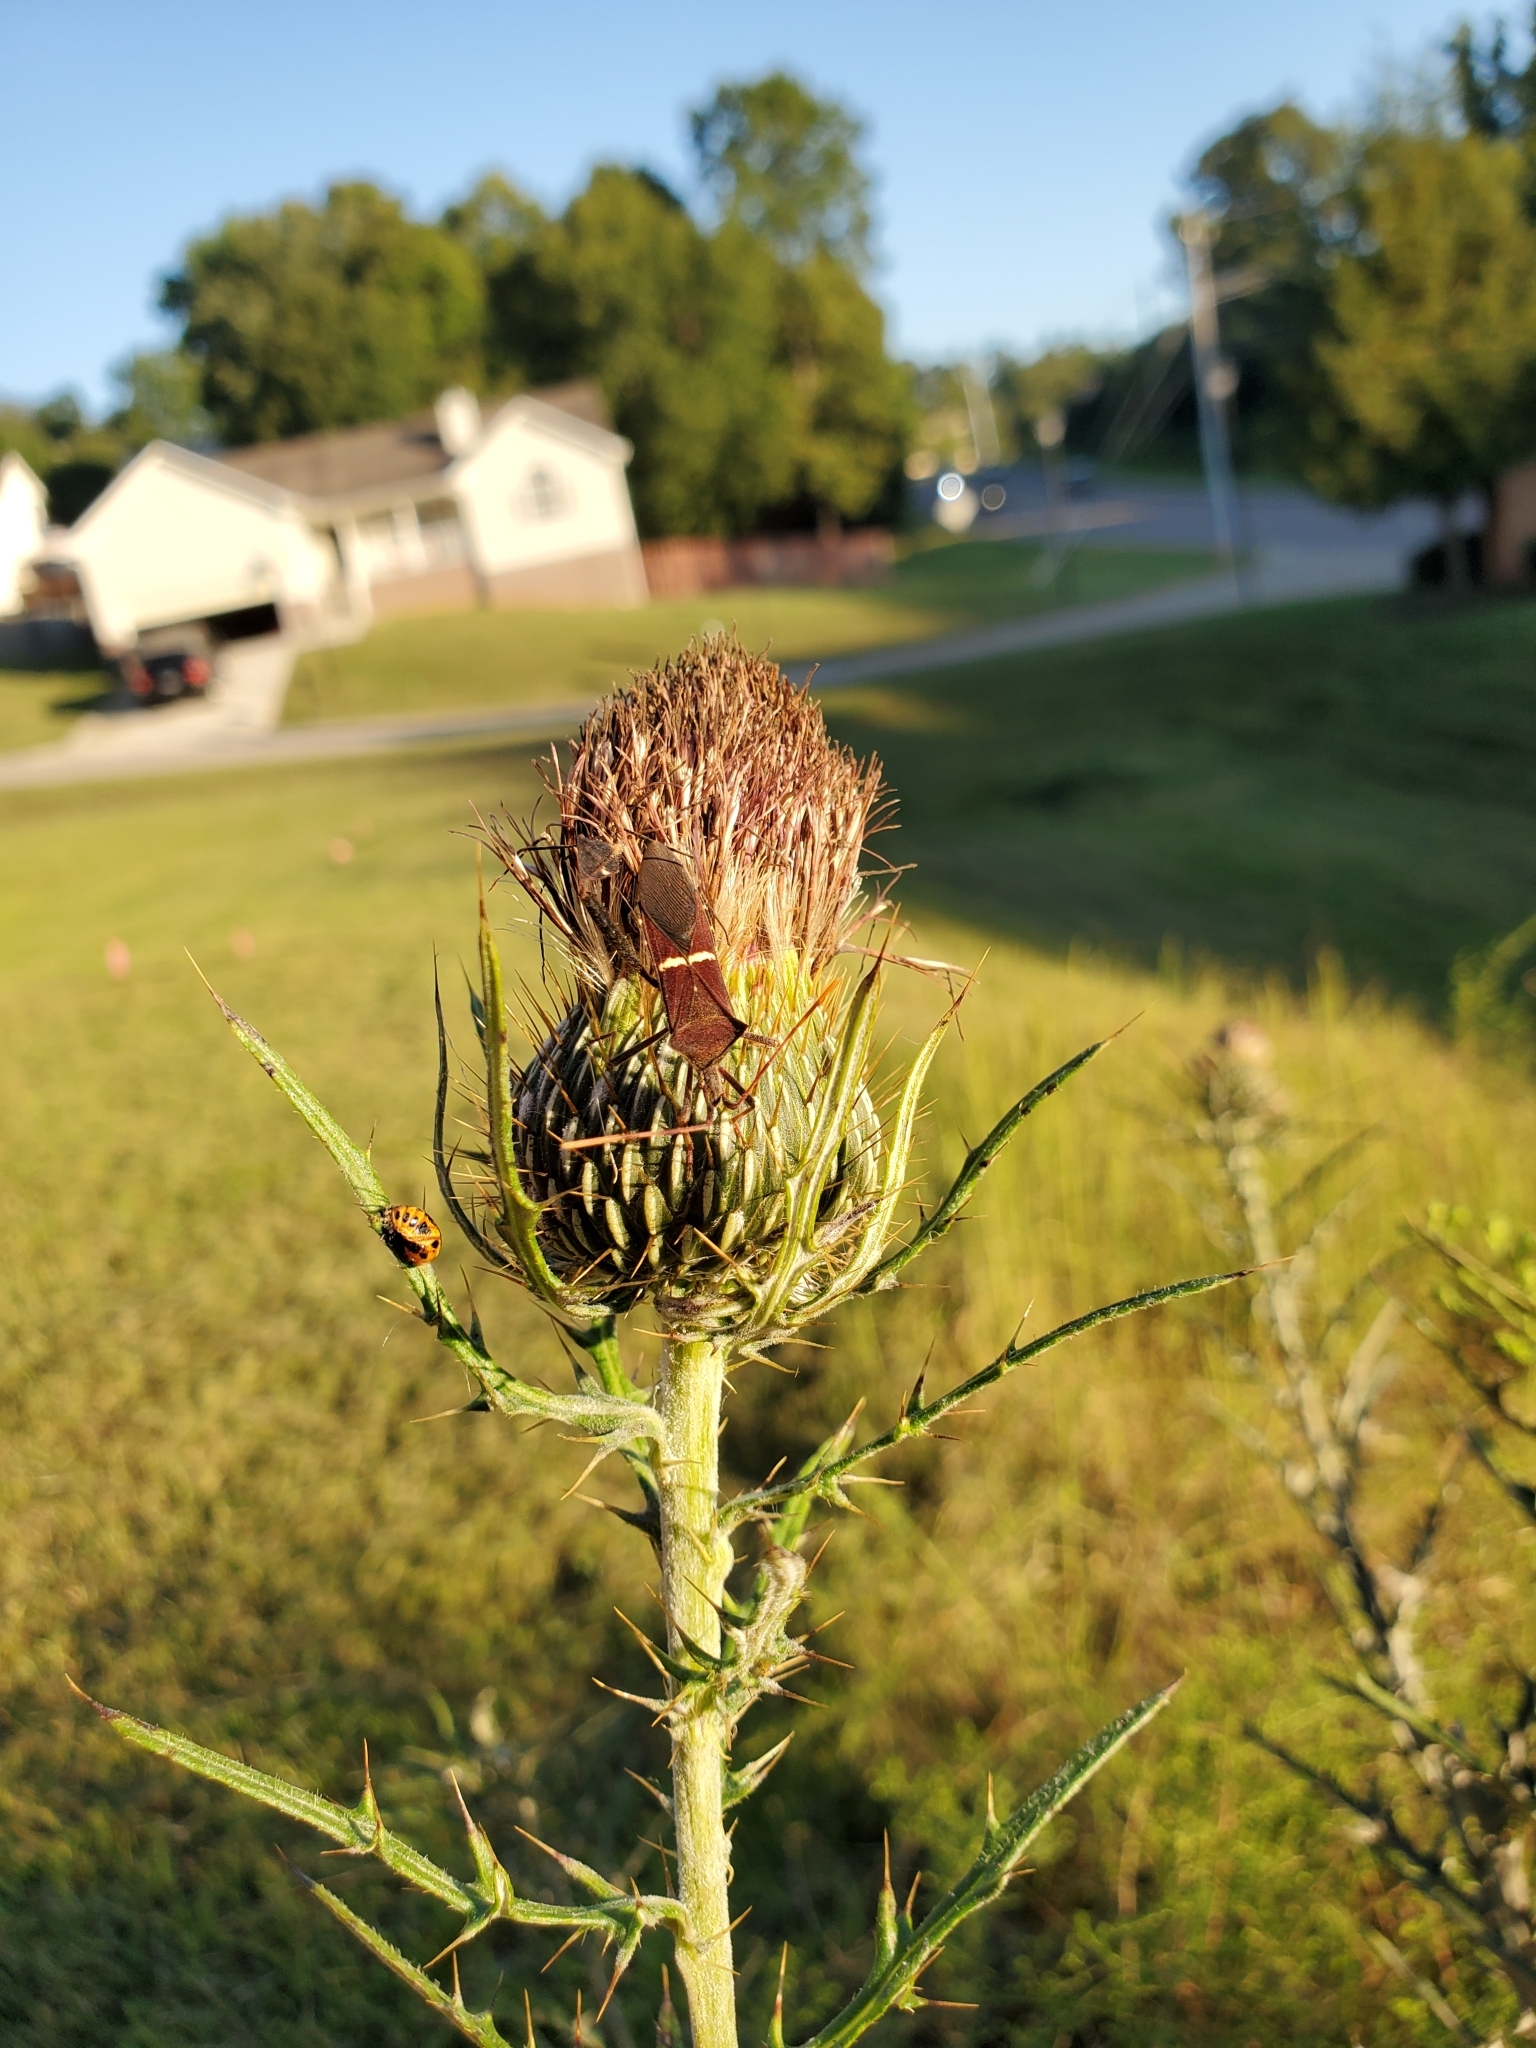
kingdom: Animalia
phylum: Arthropoda
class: Insecta
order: Hemiptera
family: Coreidae
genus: Leptoglossus
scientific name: Leptoglossus phyllopus
